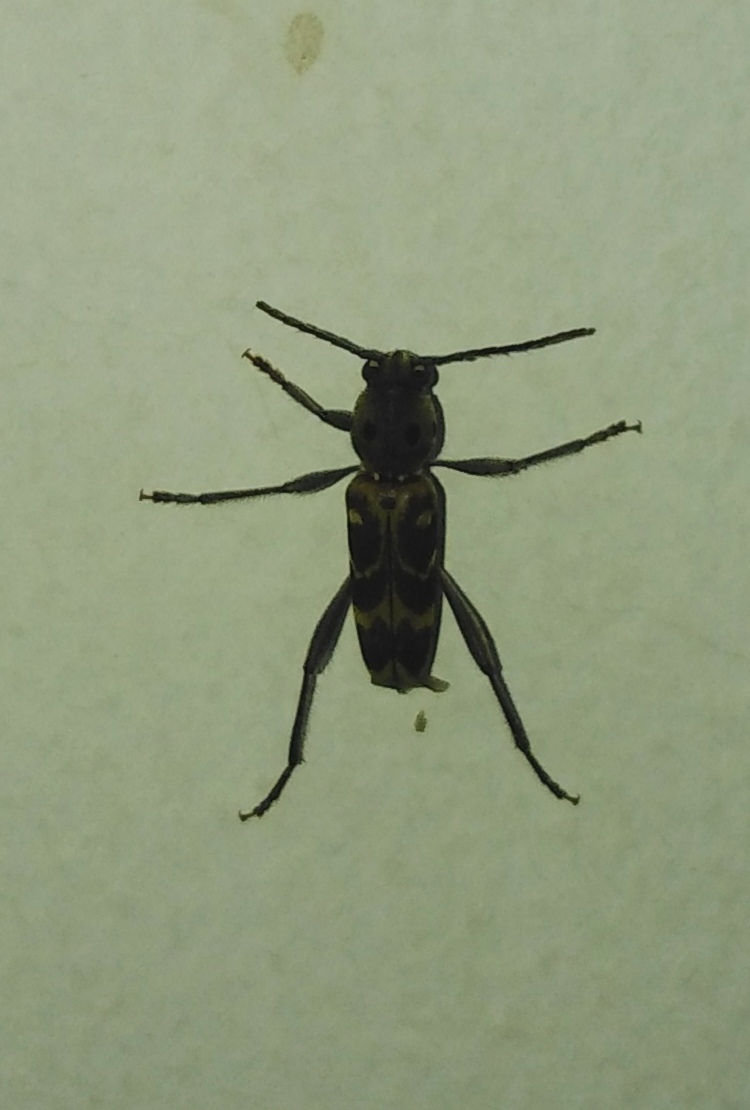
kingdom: Animalia
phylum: Arthropoda
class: Insecta
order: Coleoptera
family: Cerambycidae
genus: Xylotrechus
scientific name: Xylotrechus smei
